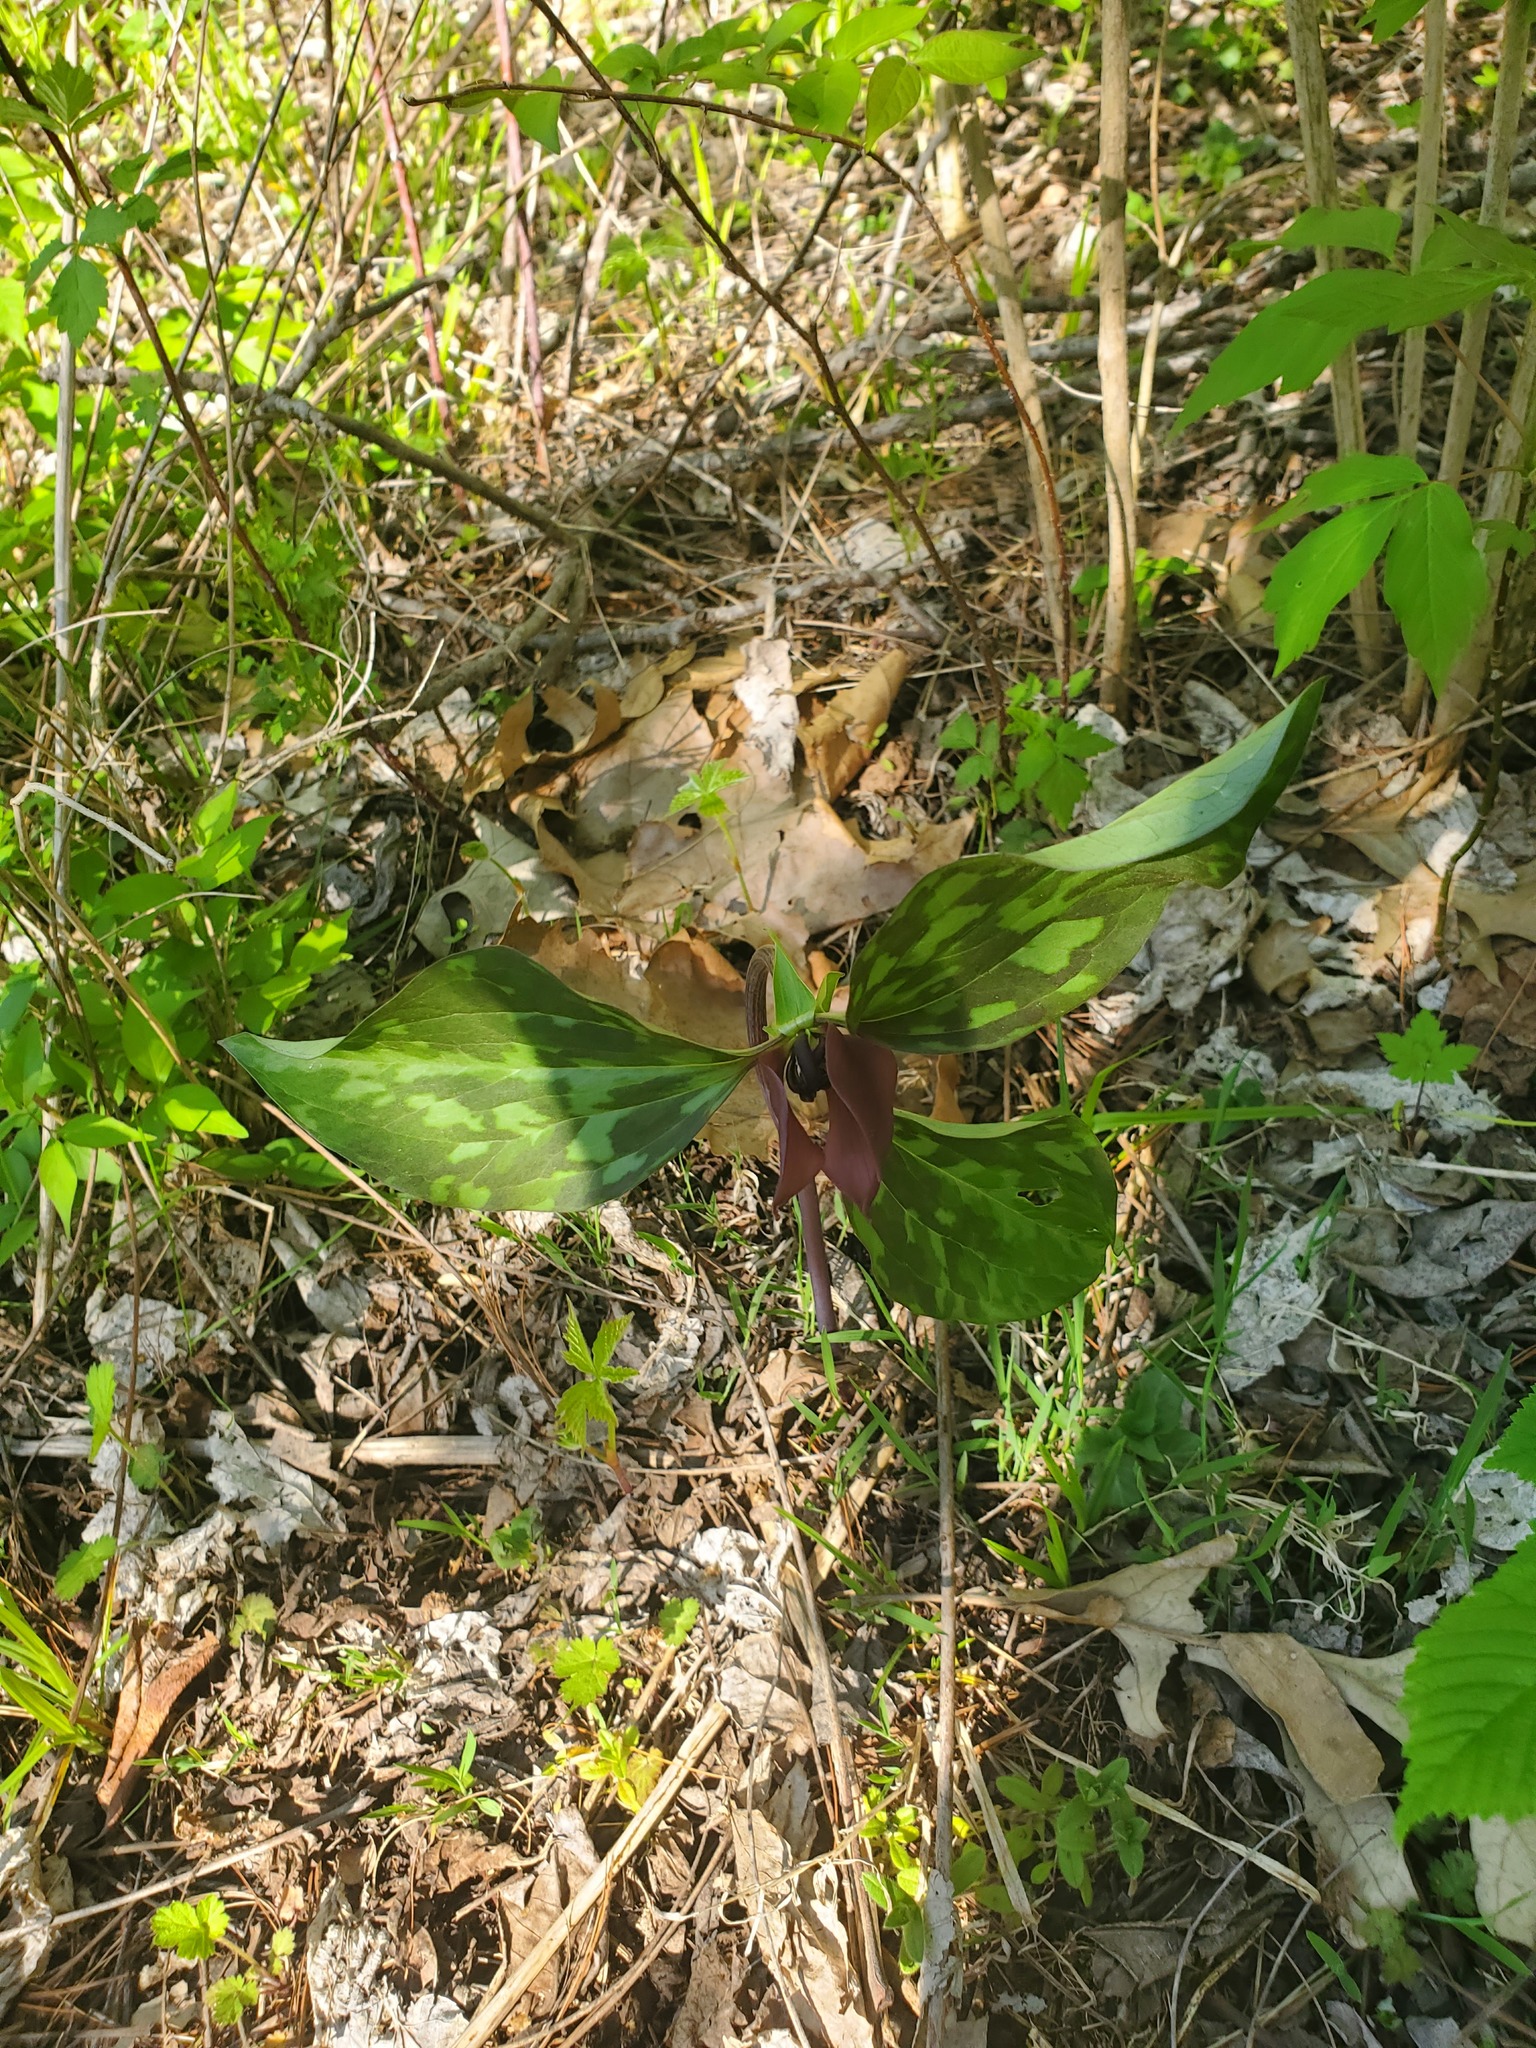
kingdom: Plantae
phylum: Tracheophyta
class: Liliopsida
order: Liliales
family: Melanthiaceae
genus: Trillium
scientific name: Trillium recurvatum
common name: Bloody butcher
